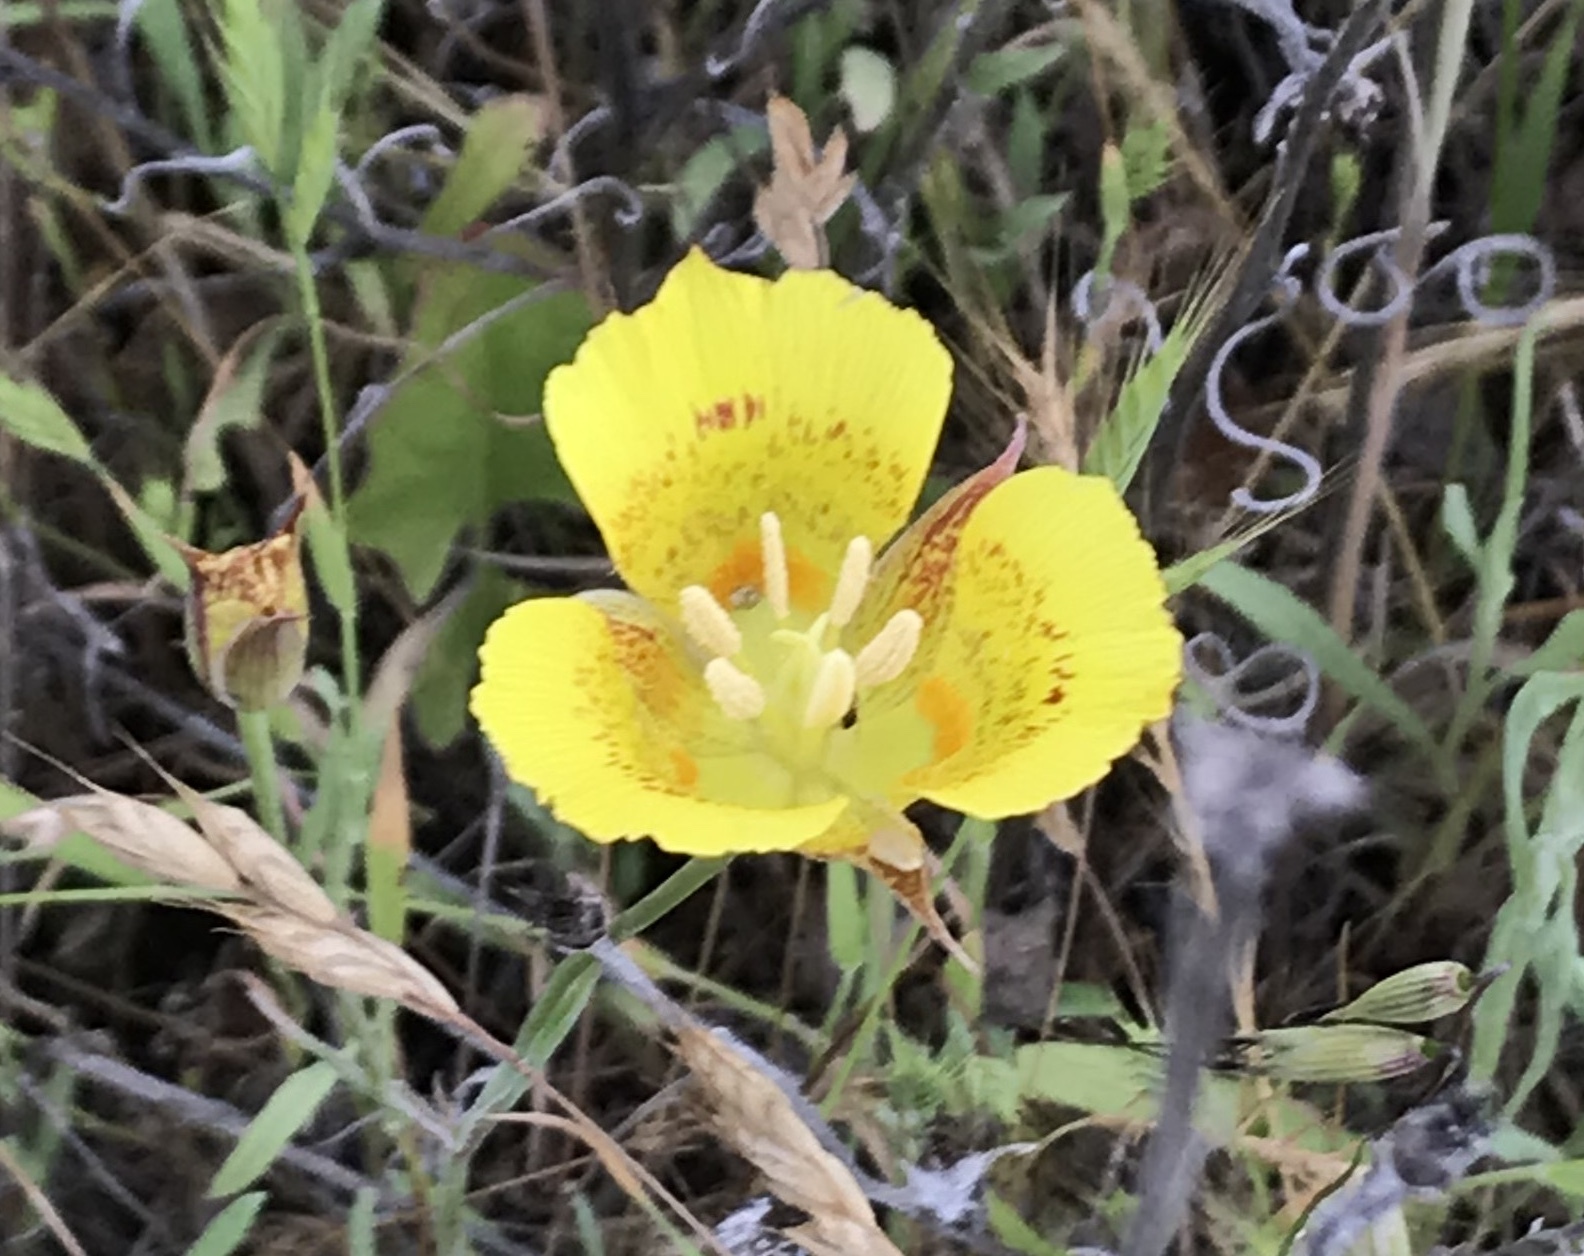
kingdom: Plantae
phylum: Tracheophyta
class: Liliopsida
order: Liliales
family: Liliaceae
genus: Calochortus
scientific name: Calochortus luteus
